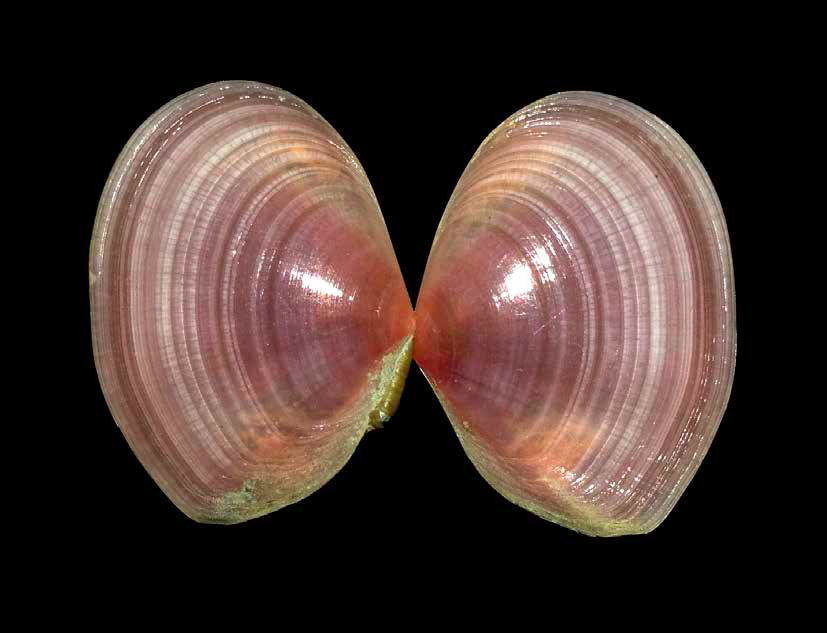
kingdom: Animalia
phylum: Mollusca
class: Bivalvia
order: Cardiida
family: Tellinidae
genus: Macomangulus
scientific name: Macomangulus tenuis
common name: Thin tellin
